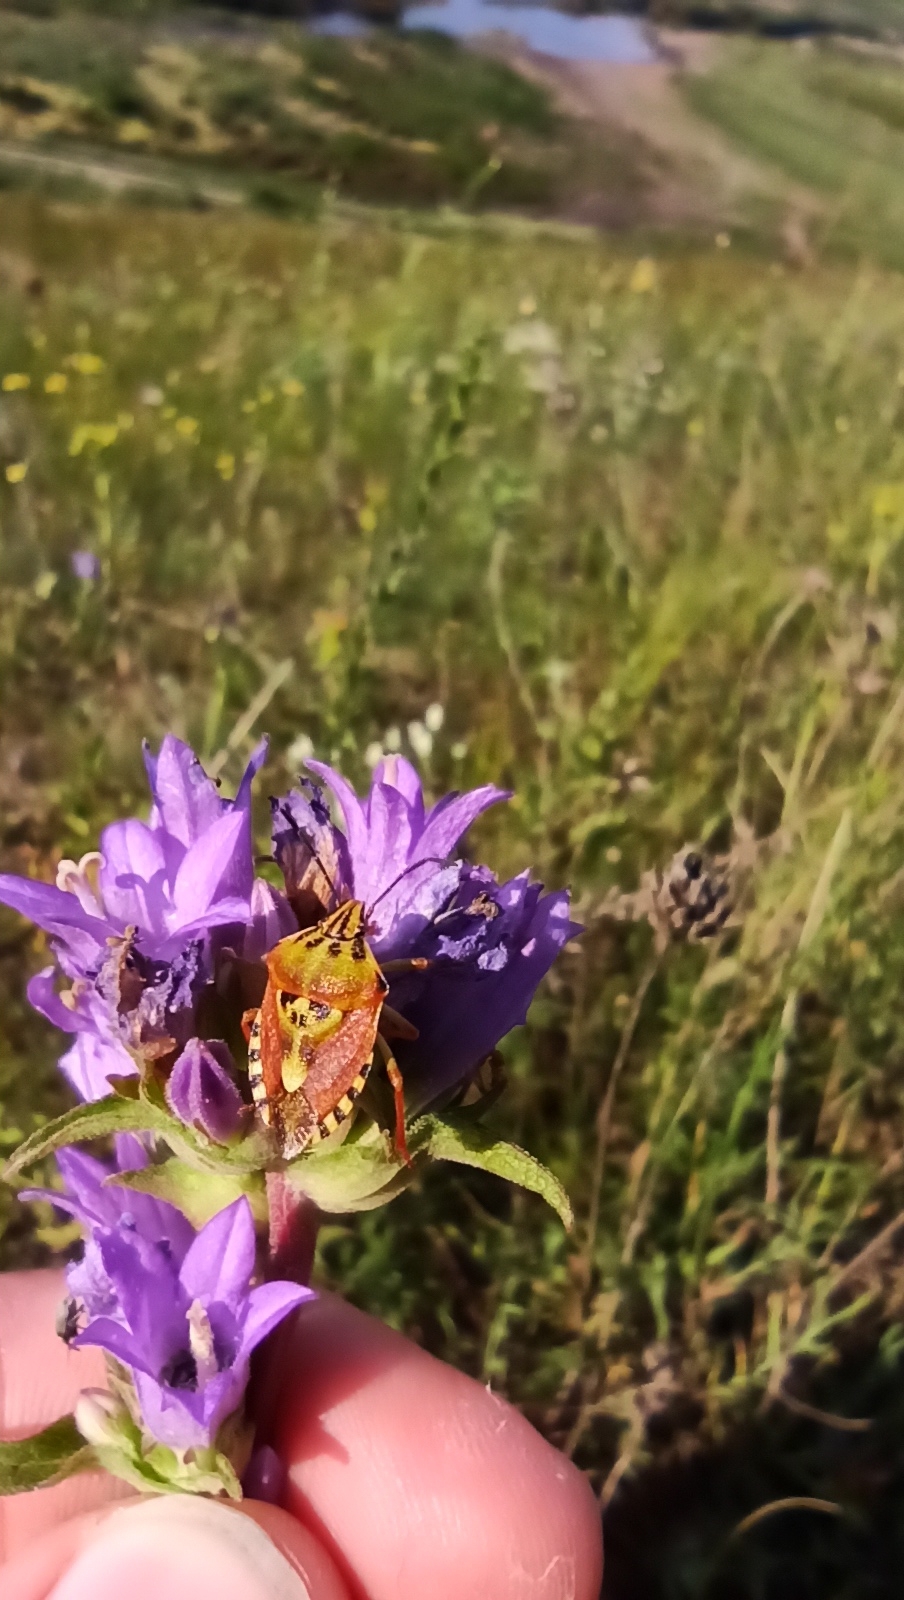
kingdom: Animalia
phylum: Arthropoda
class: Insecta
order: Hemiptera
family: Pentatomidae
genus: Carpocoris
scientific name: Carpocoris purpureipennis
